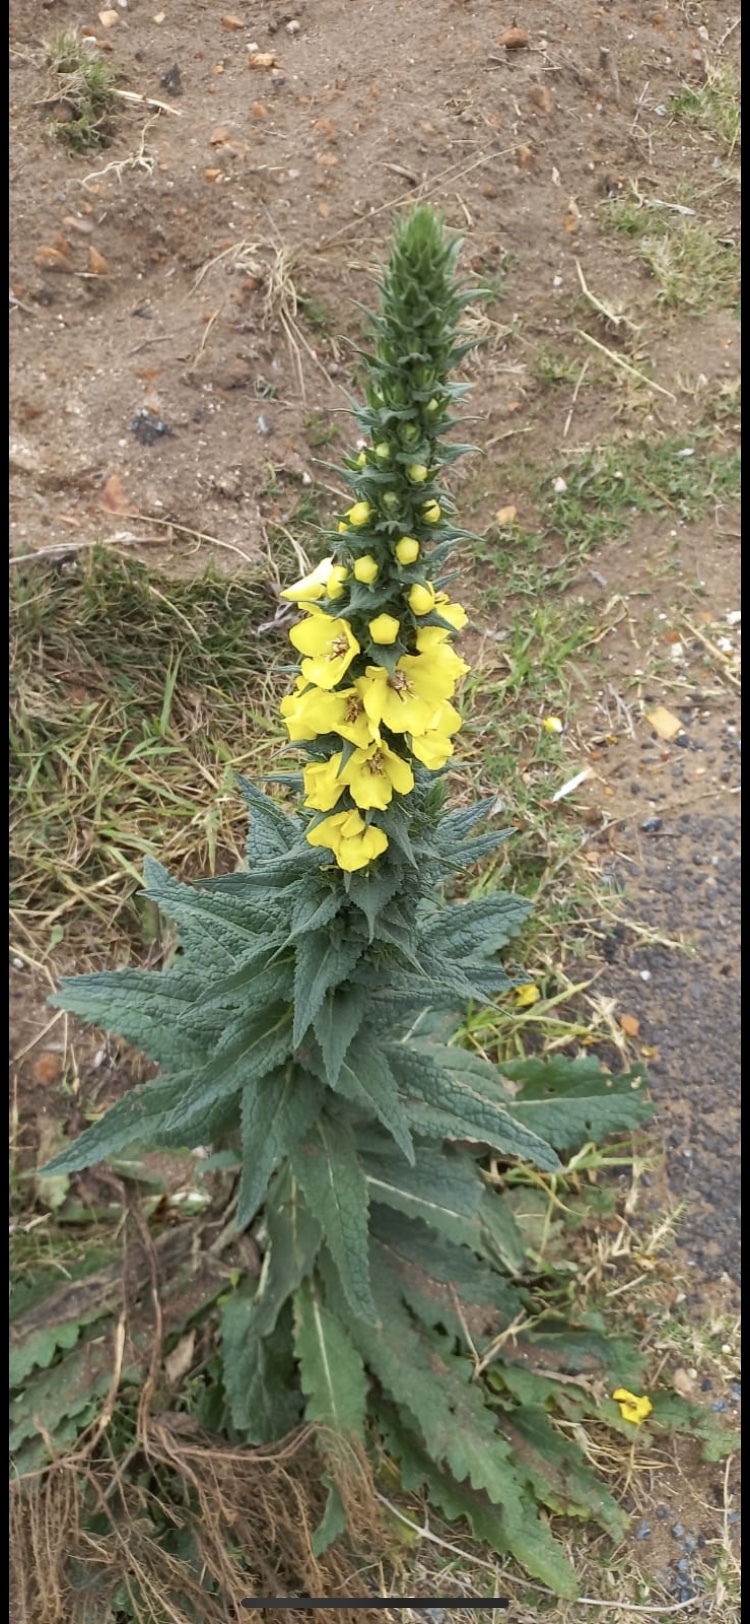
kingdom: Plantae
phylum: Tracheophyta
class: Magnoliopsida
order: Lamiales
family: Scrophulariaceae
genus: Verbascum
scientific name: Verbascum virgatum
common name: Twiggy mullein
